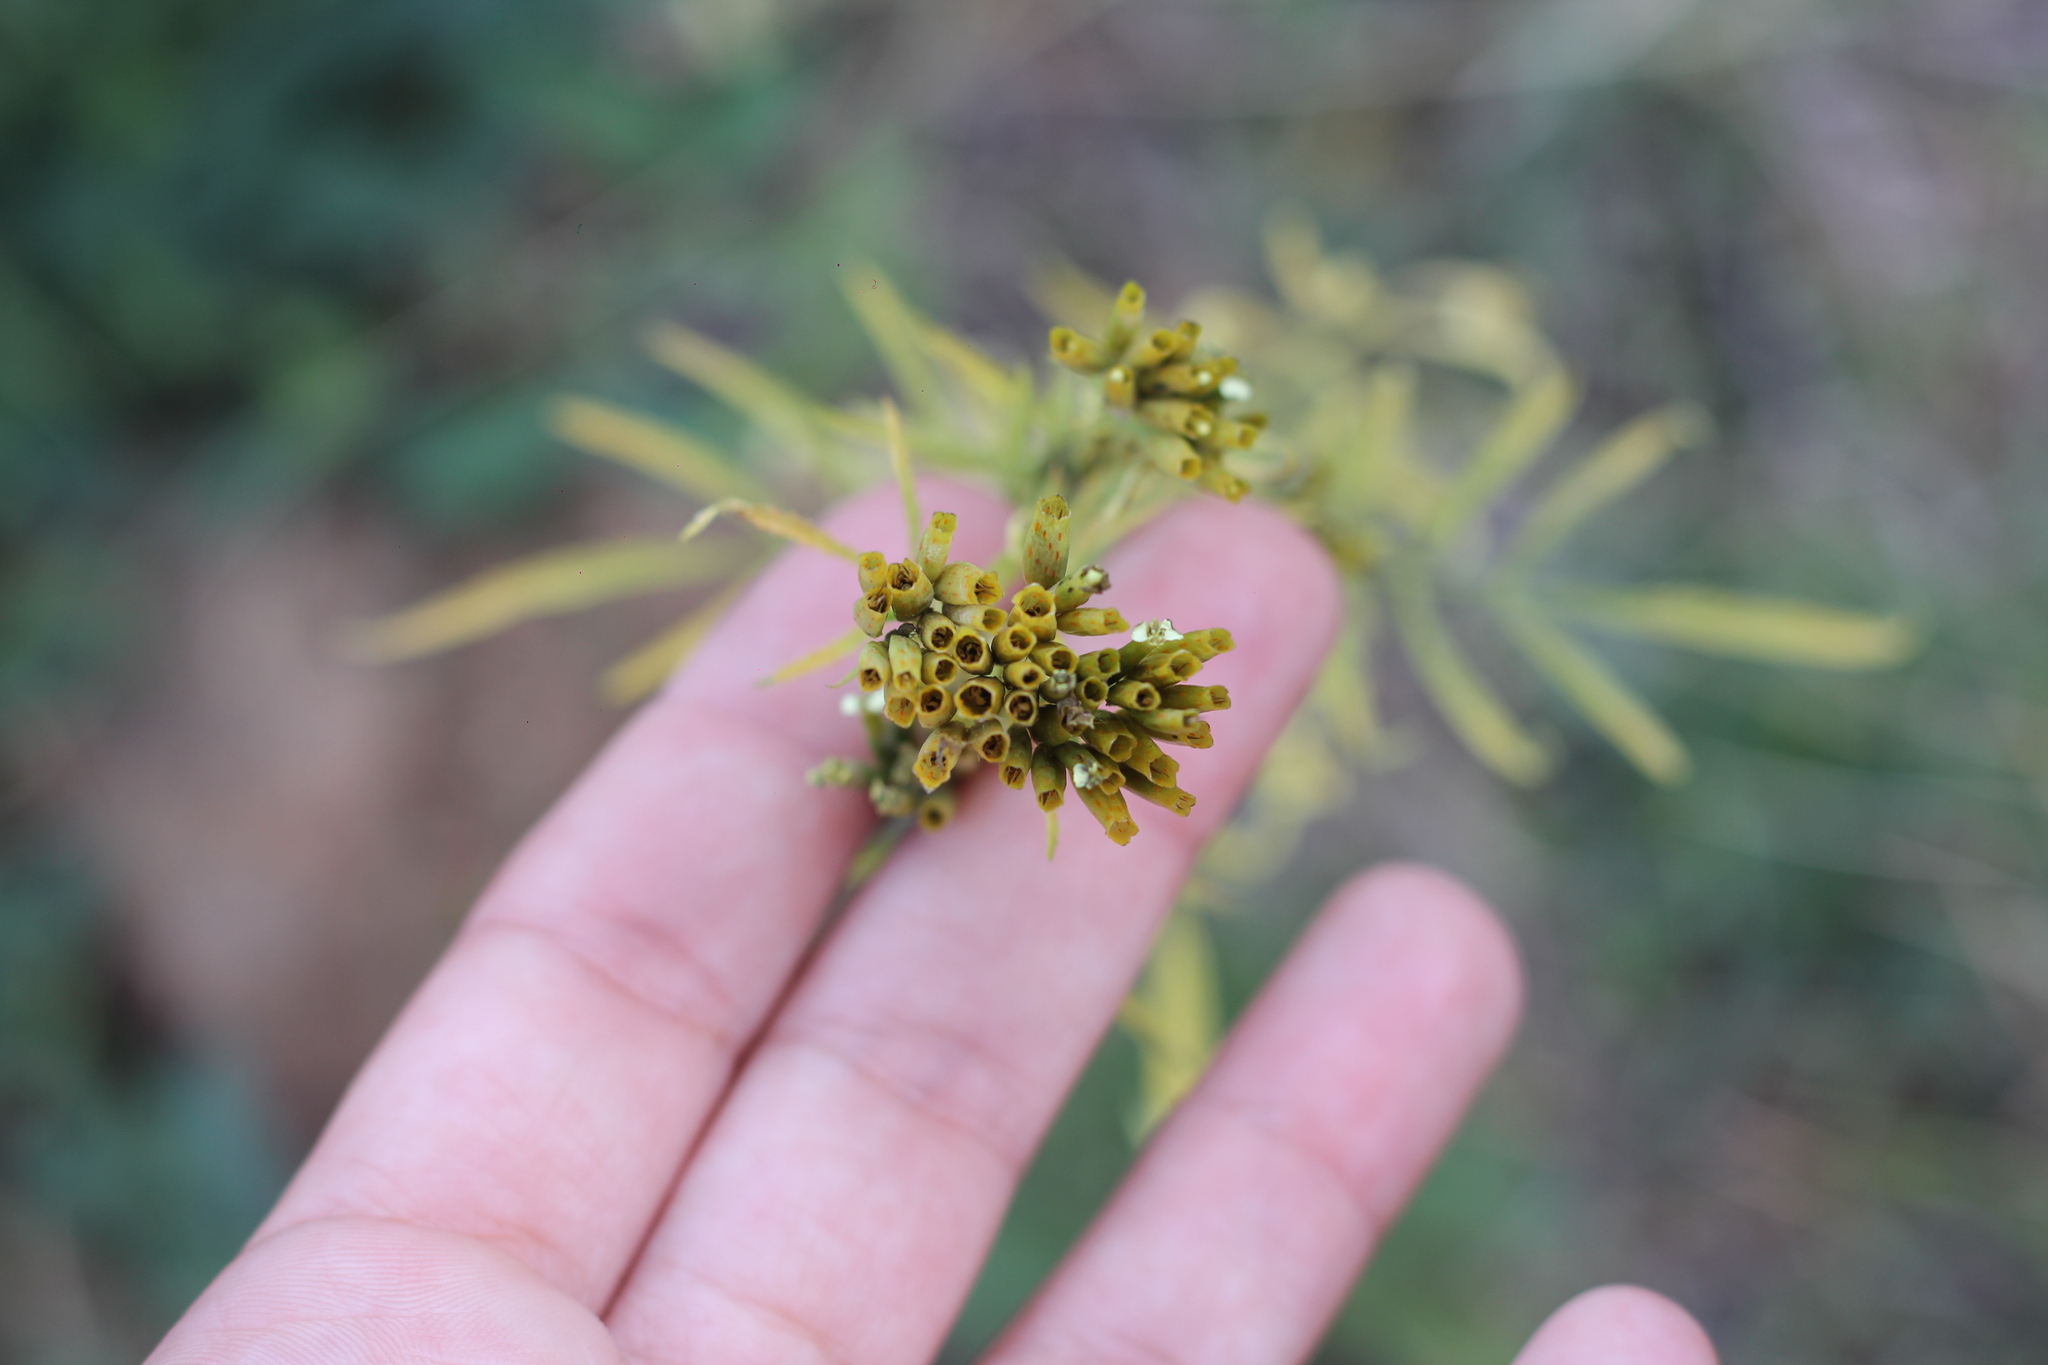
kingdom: Plantae
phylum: Tracheophyta
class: Magnoliopsida
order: Asterales
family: Asteraceae
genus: Tagetes
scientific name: Tagetes minuta
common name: Muster john henry
